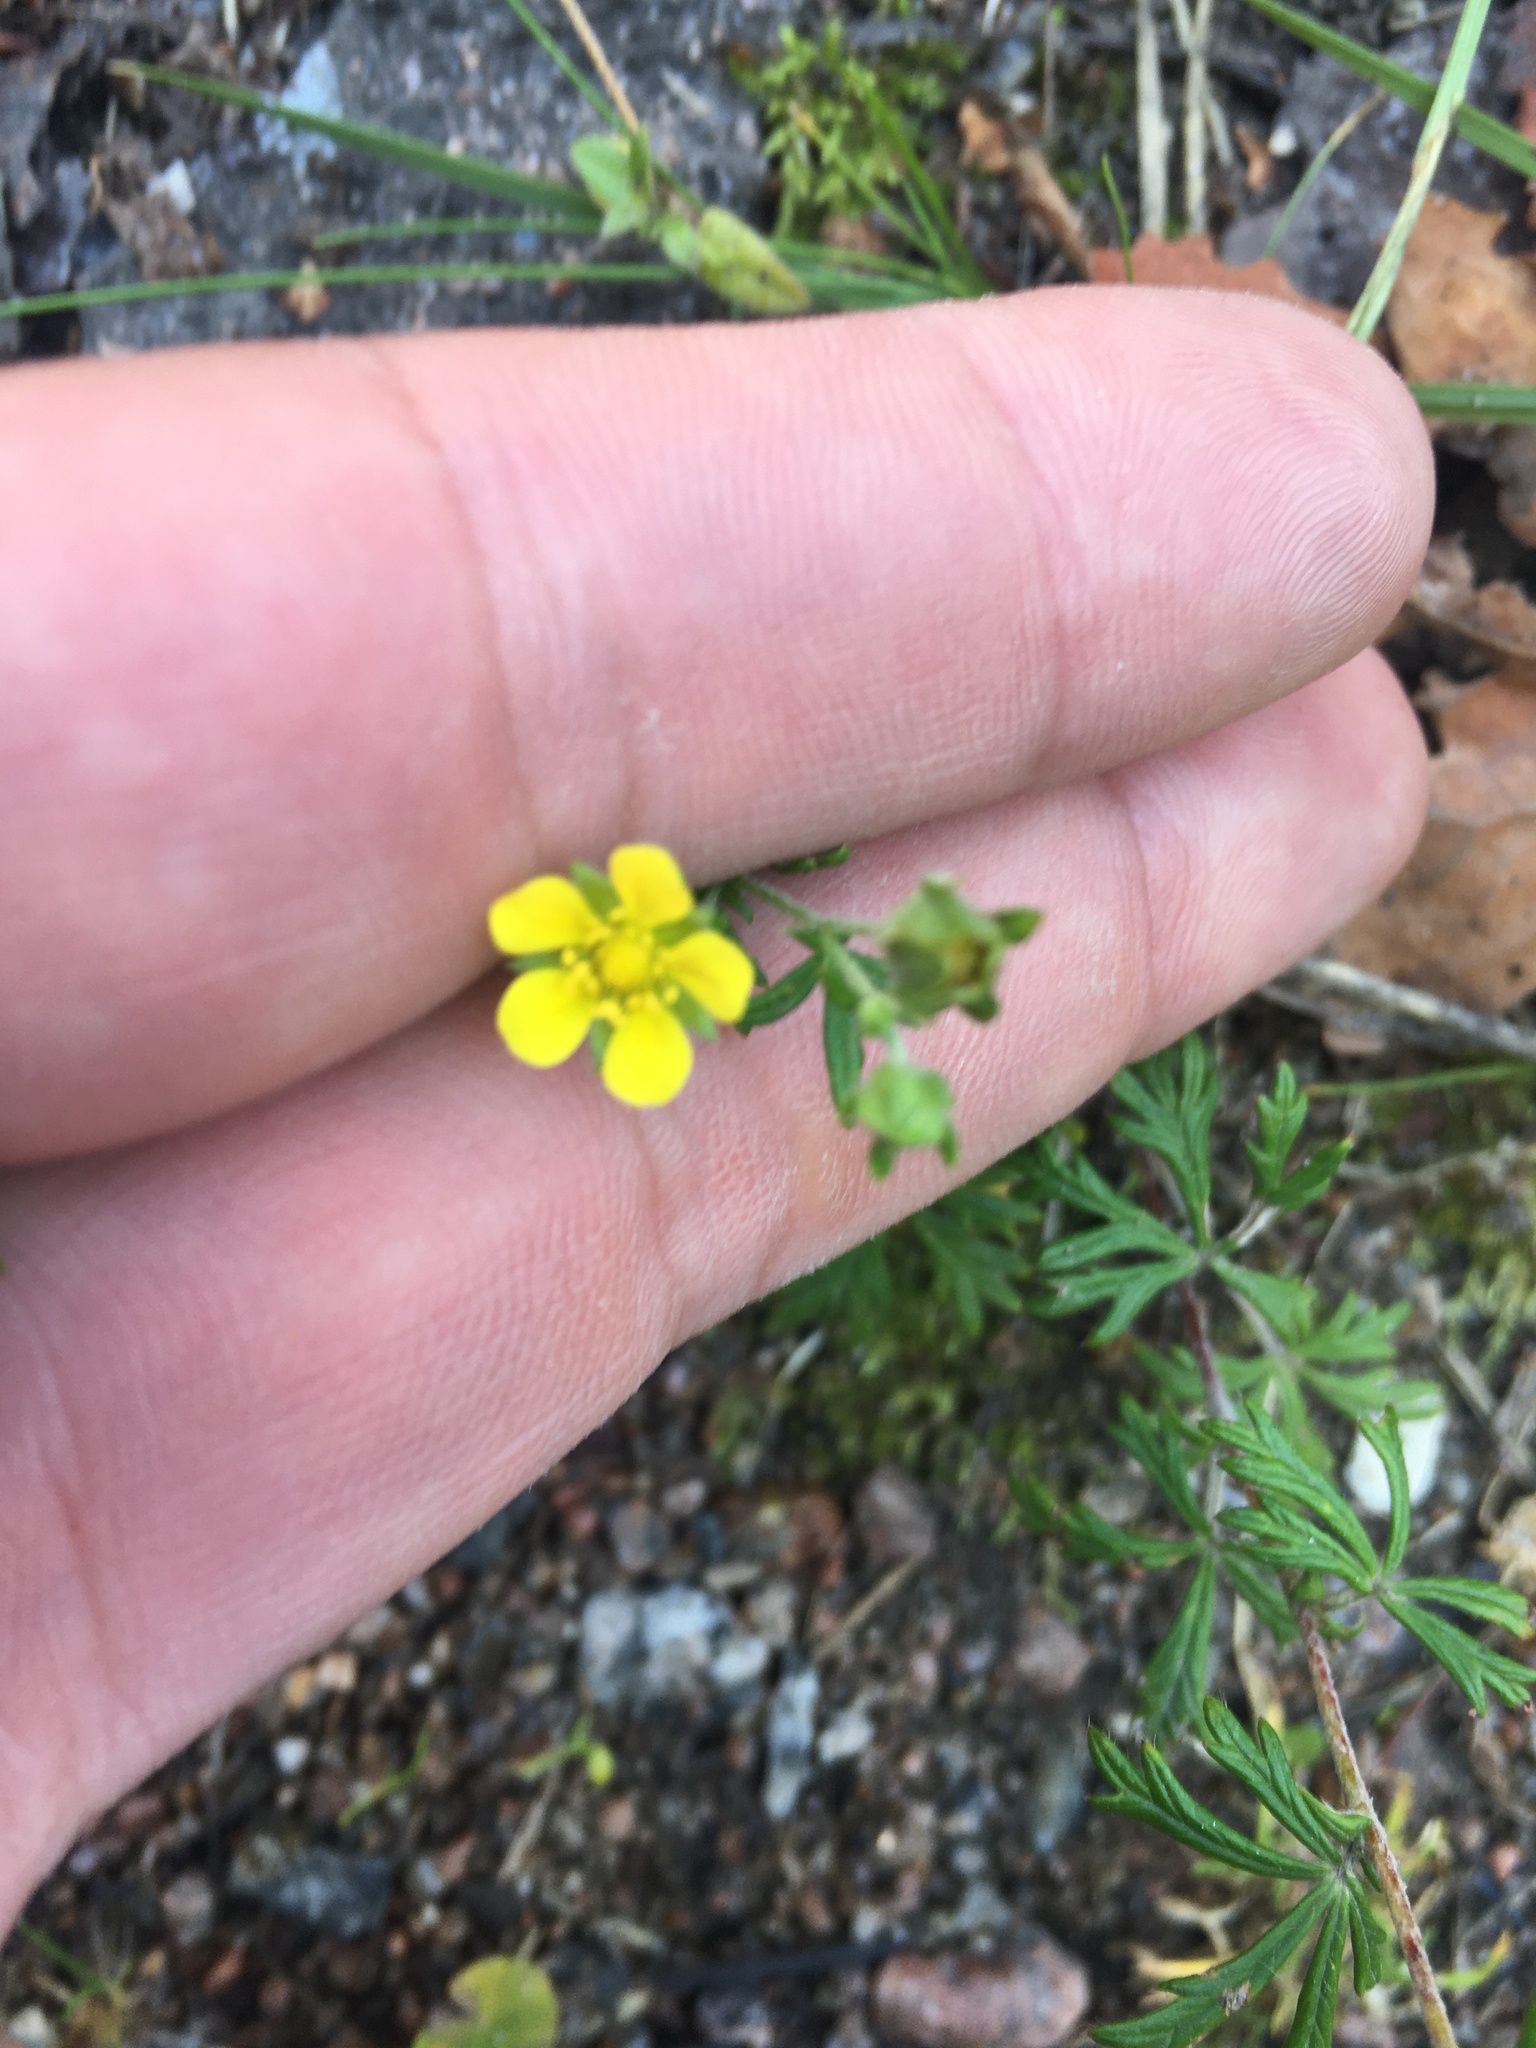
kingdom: Plantae
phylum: Tracheophyta
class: Magnoliopsida
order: Rosales
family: Rosaceae
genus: Potentilla
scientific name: Potentilla argentea
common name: Hoary cinquefoil
